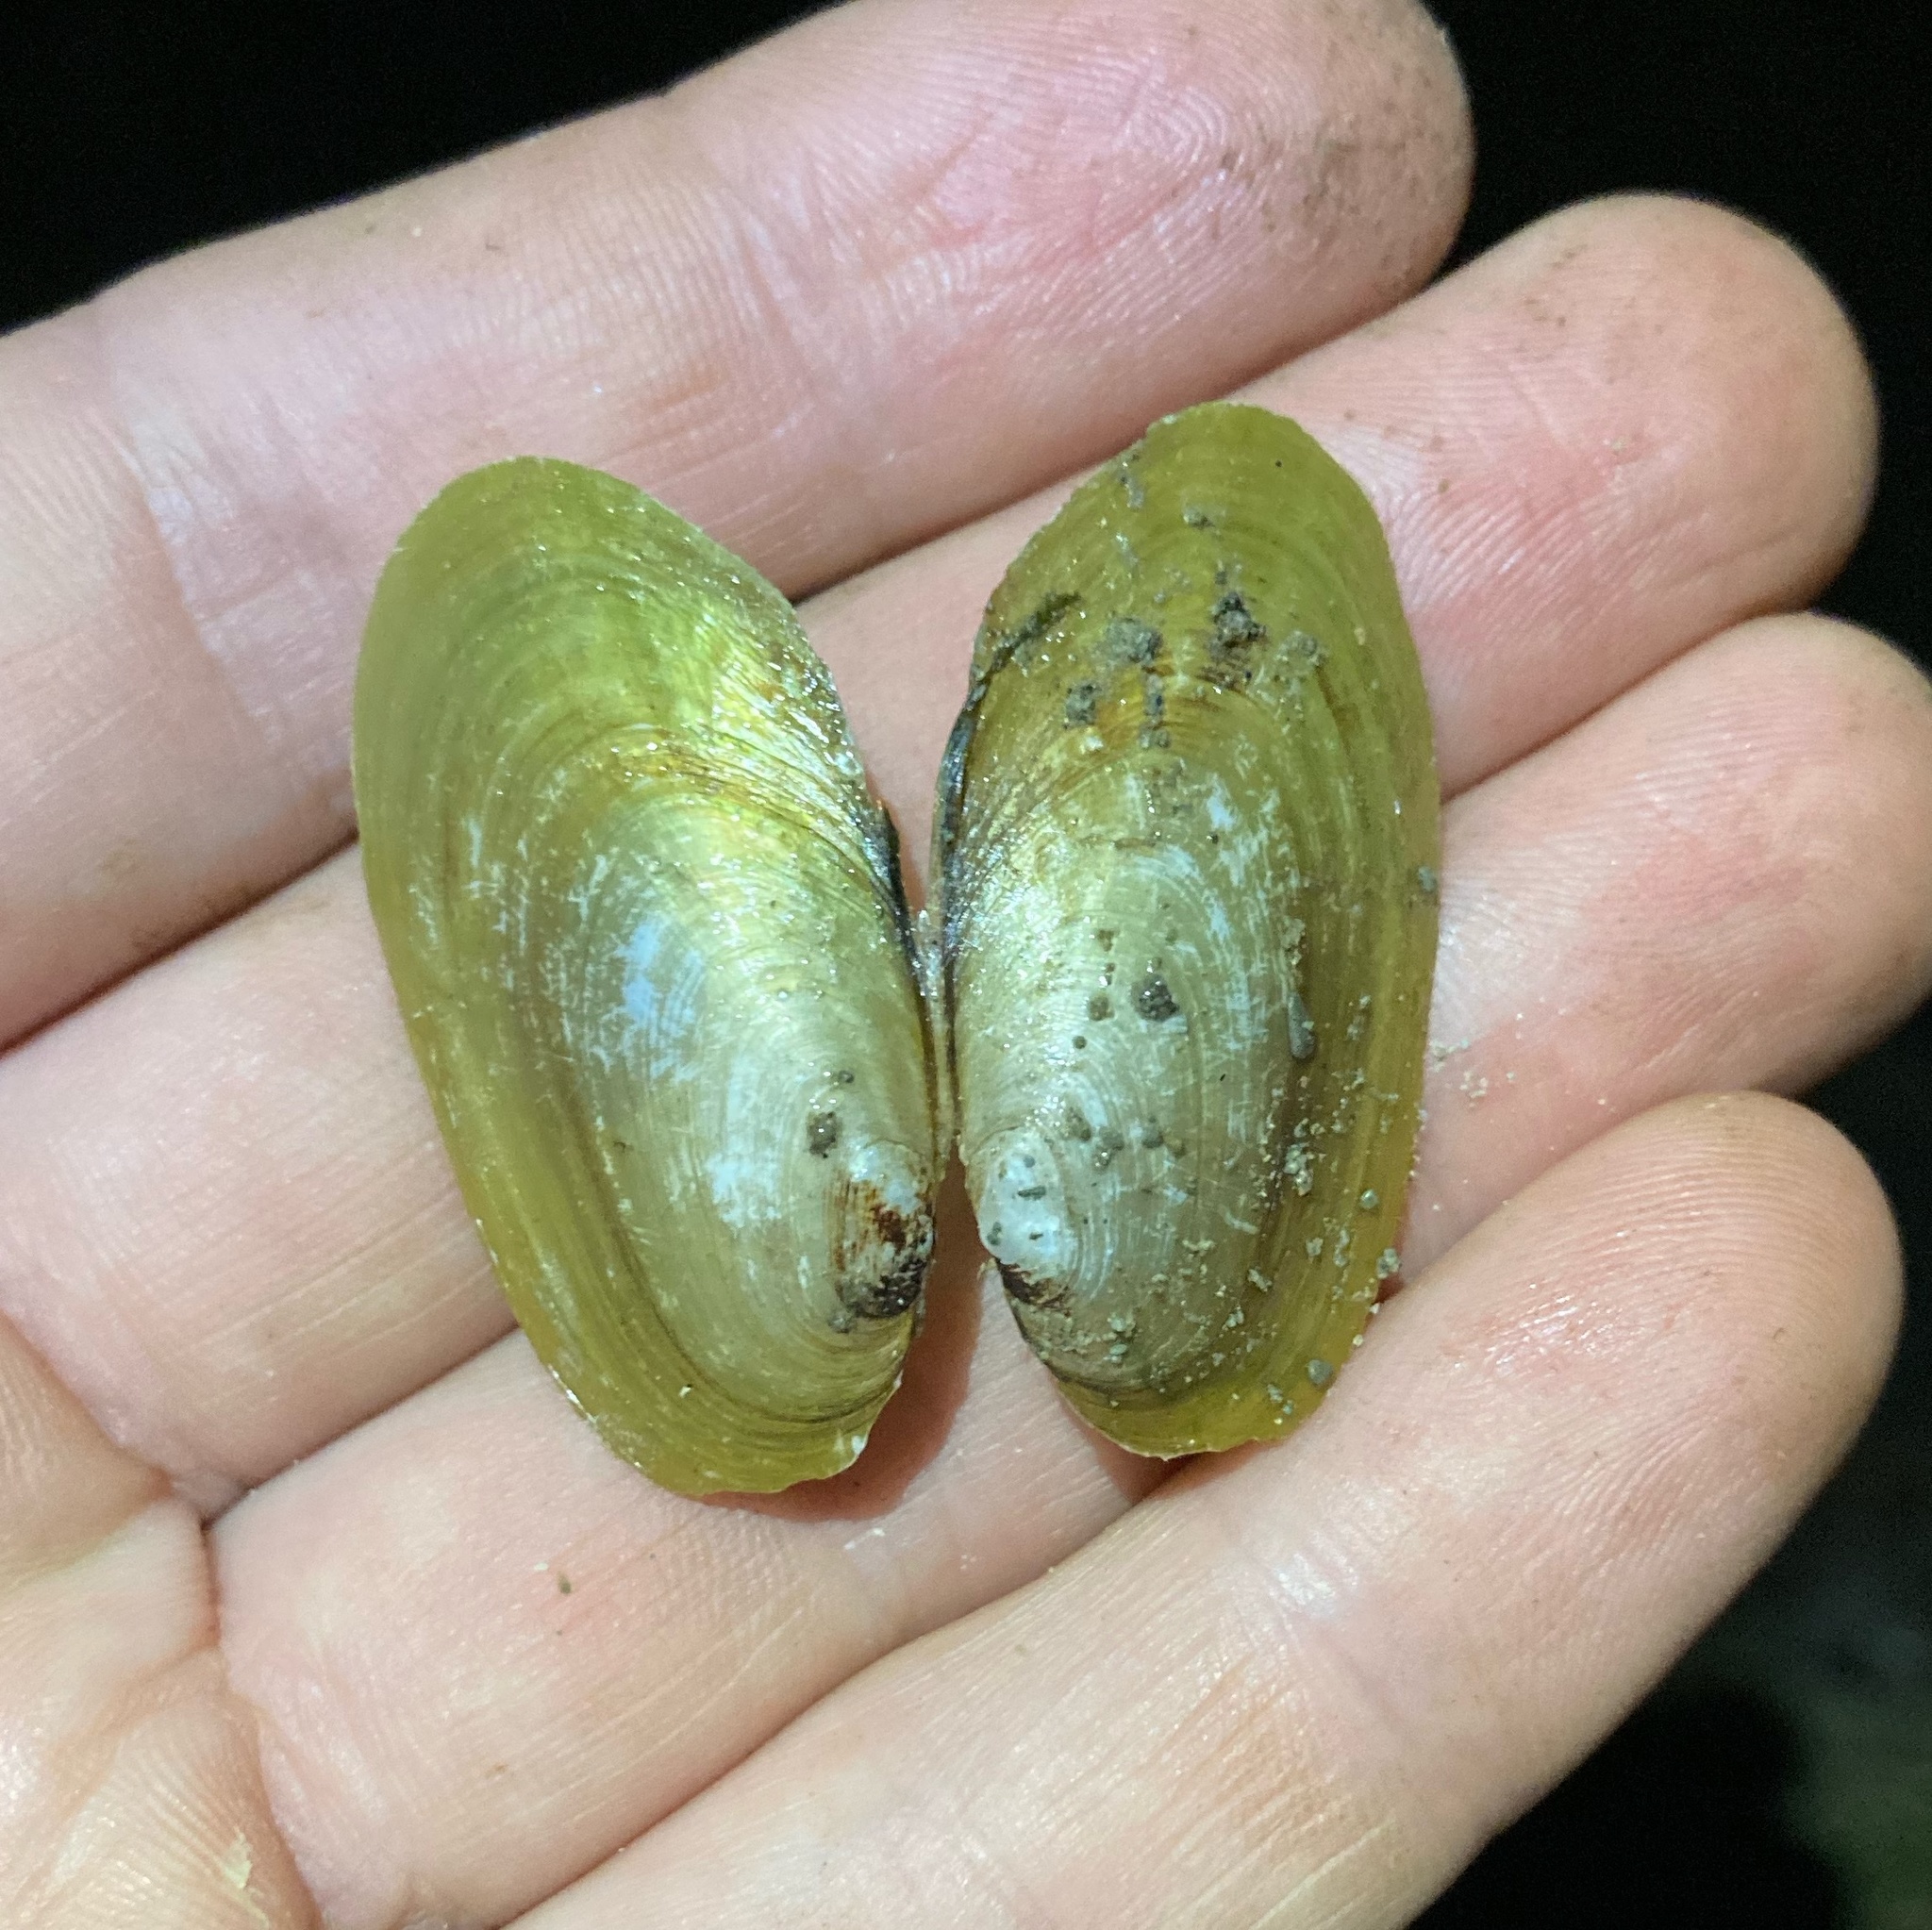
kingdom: Animalia
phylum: Mollusca
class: Bivalvia
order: Unionida
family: Hyriidae
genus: Echyridella
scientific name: Echyridella menziesii
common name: New zealand freshwater mussel
